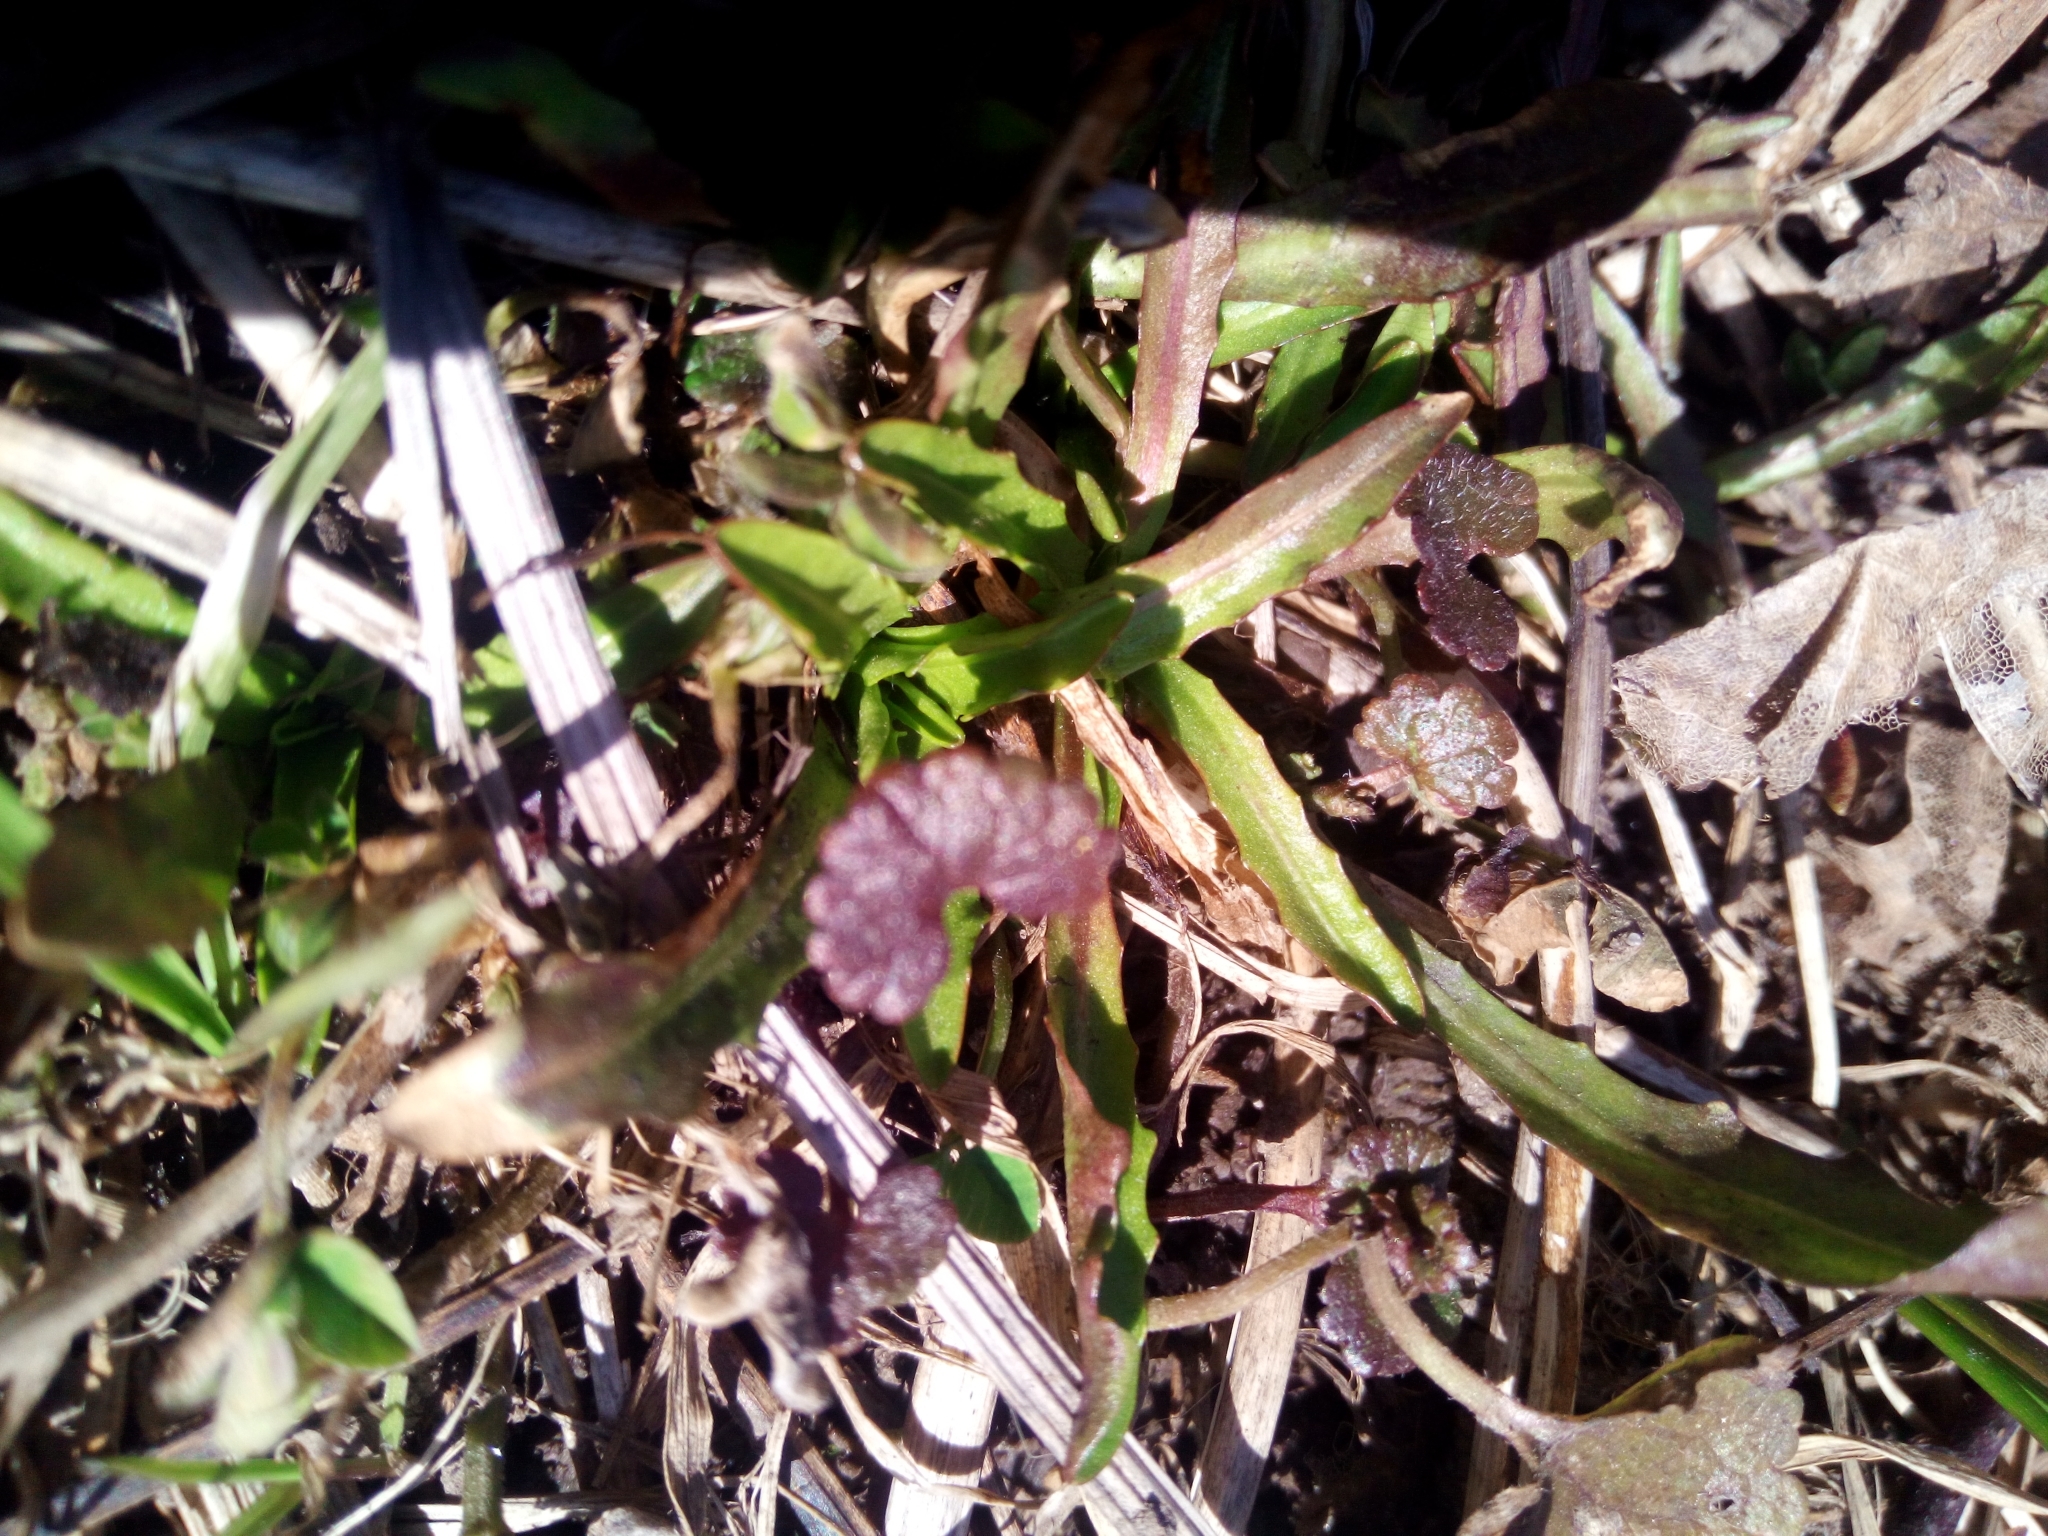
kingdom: Plantae
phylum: Tracheophyta
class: Magnoliopsida
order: Lamiales
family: Lamiaceae
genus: Glechoma
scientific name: Glechoma hederacea
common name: Ground ivy
